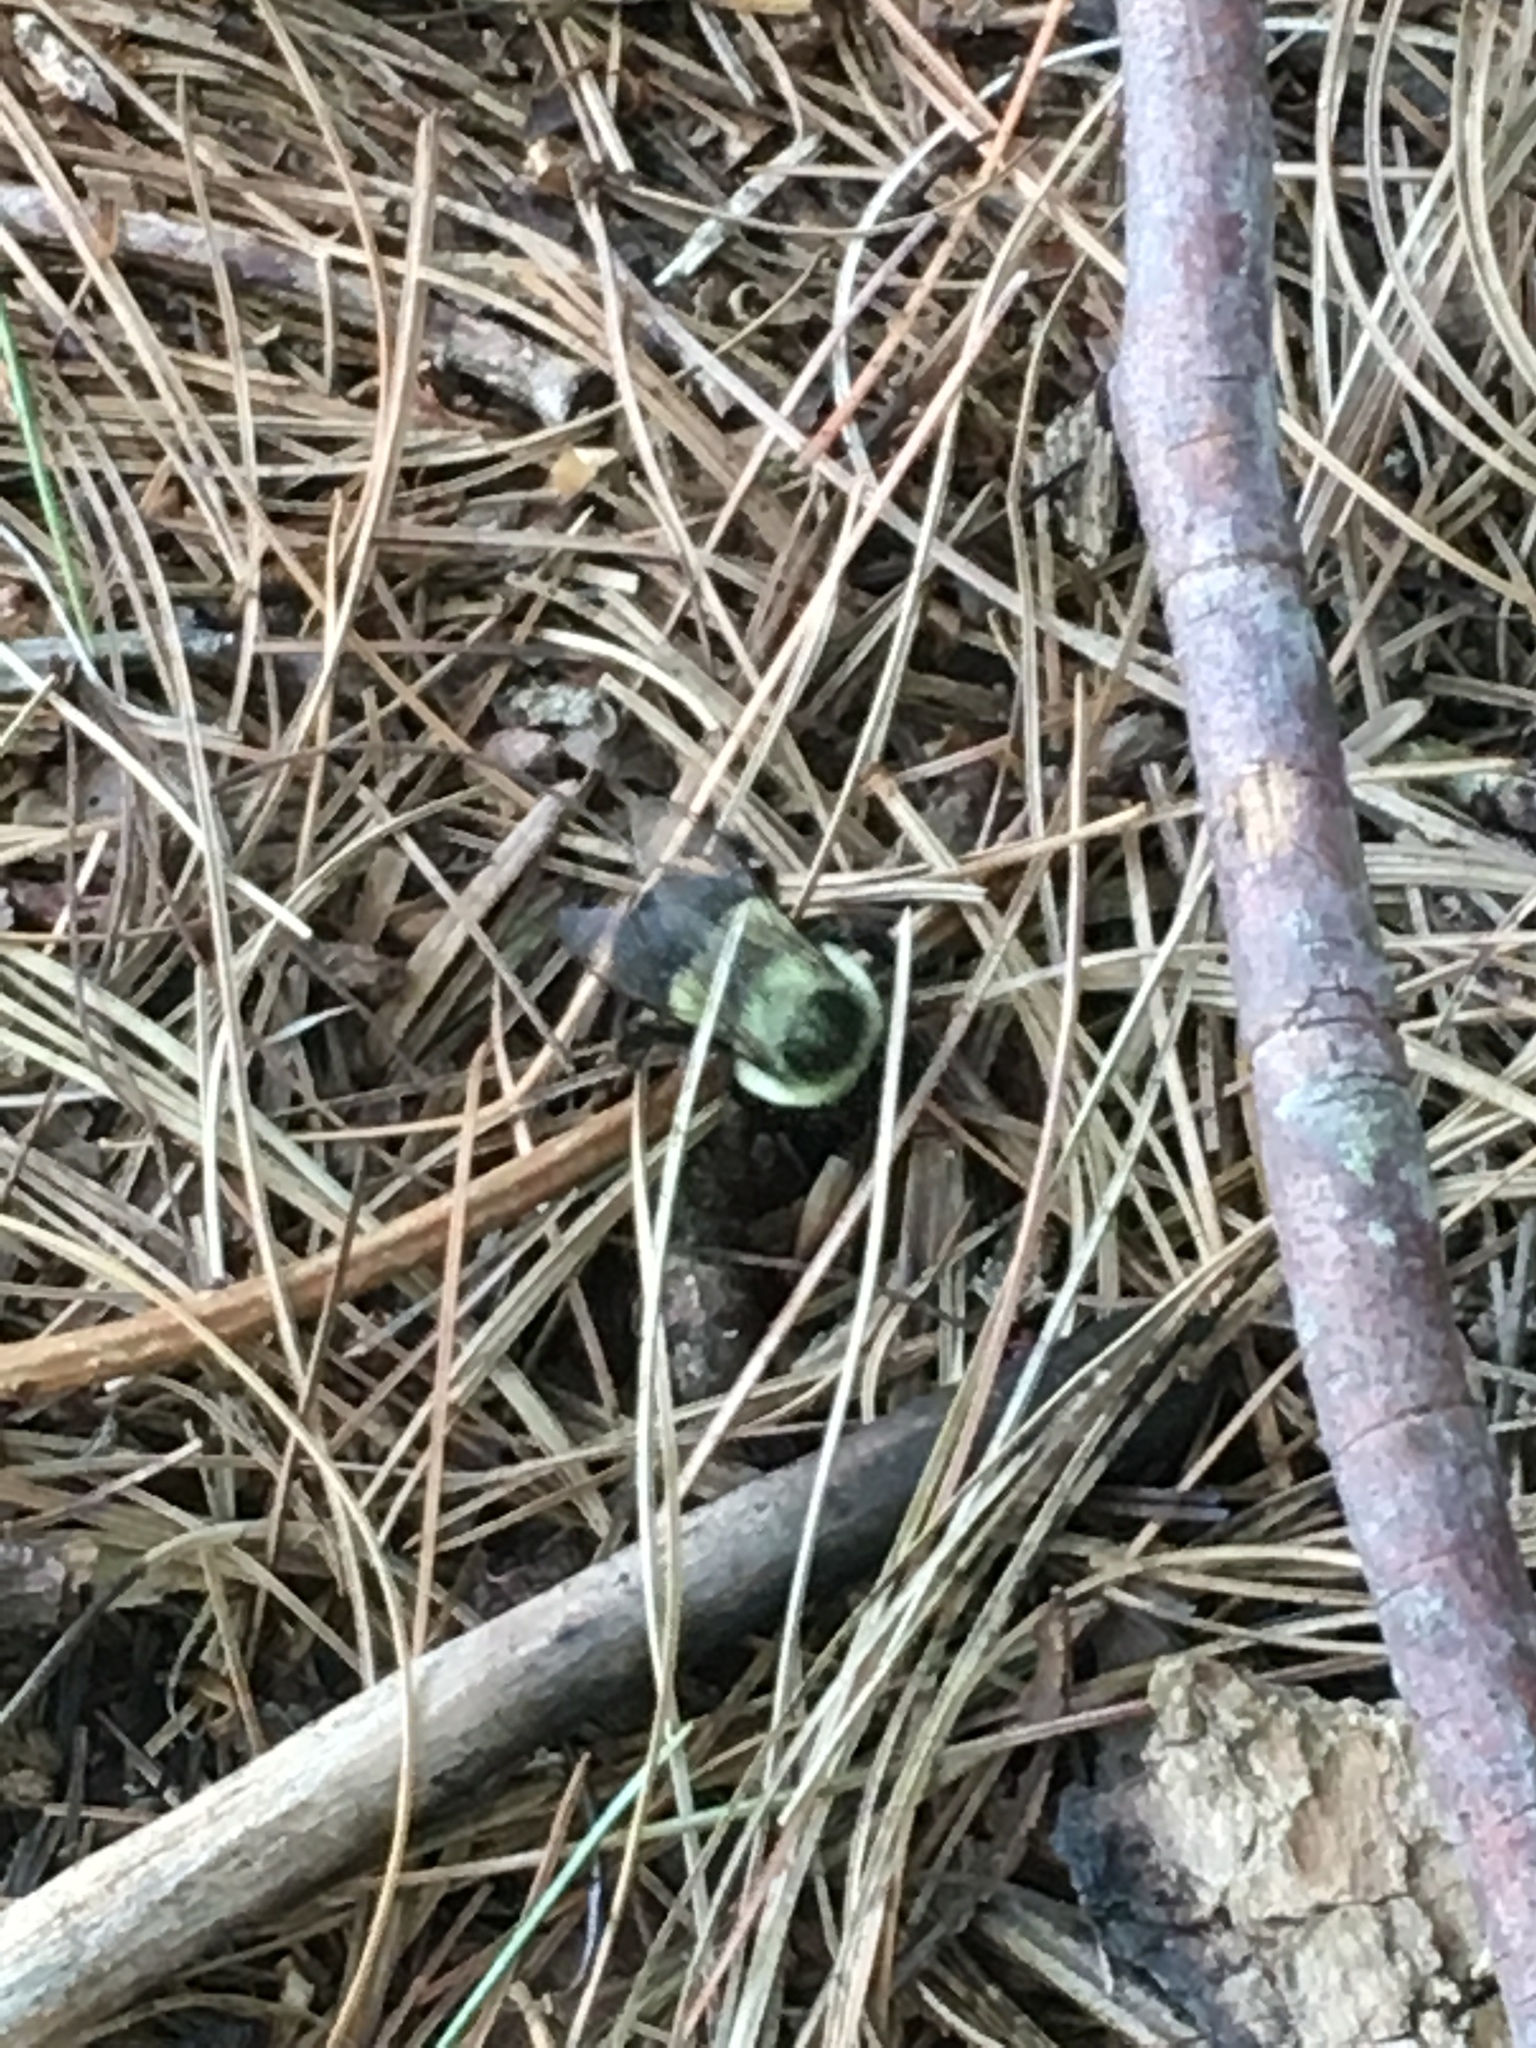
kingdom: Animalia
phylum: Arthropoda
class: Insecta
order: Hymenoptera
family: Apidae
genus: Bombus
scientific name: Bombus impatiens
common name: Common eastern bumble bee
